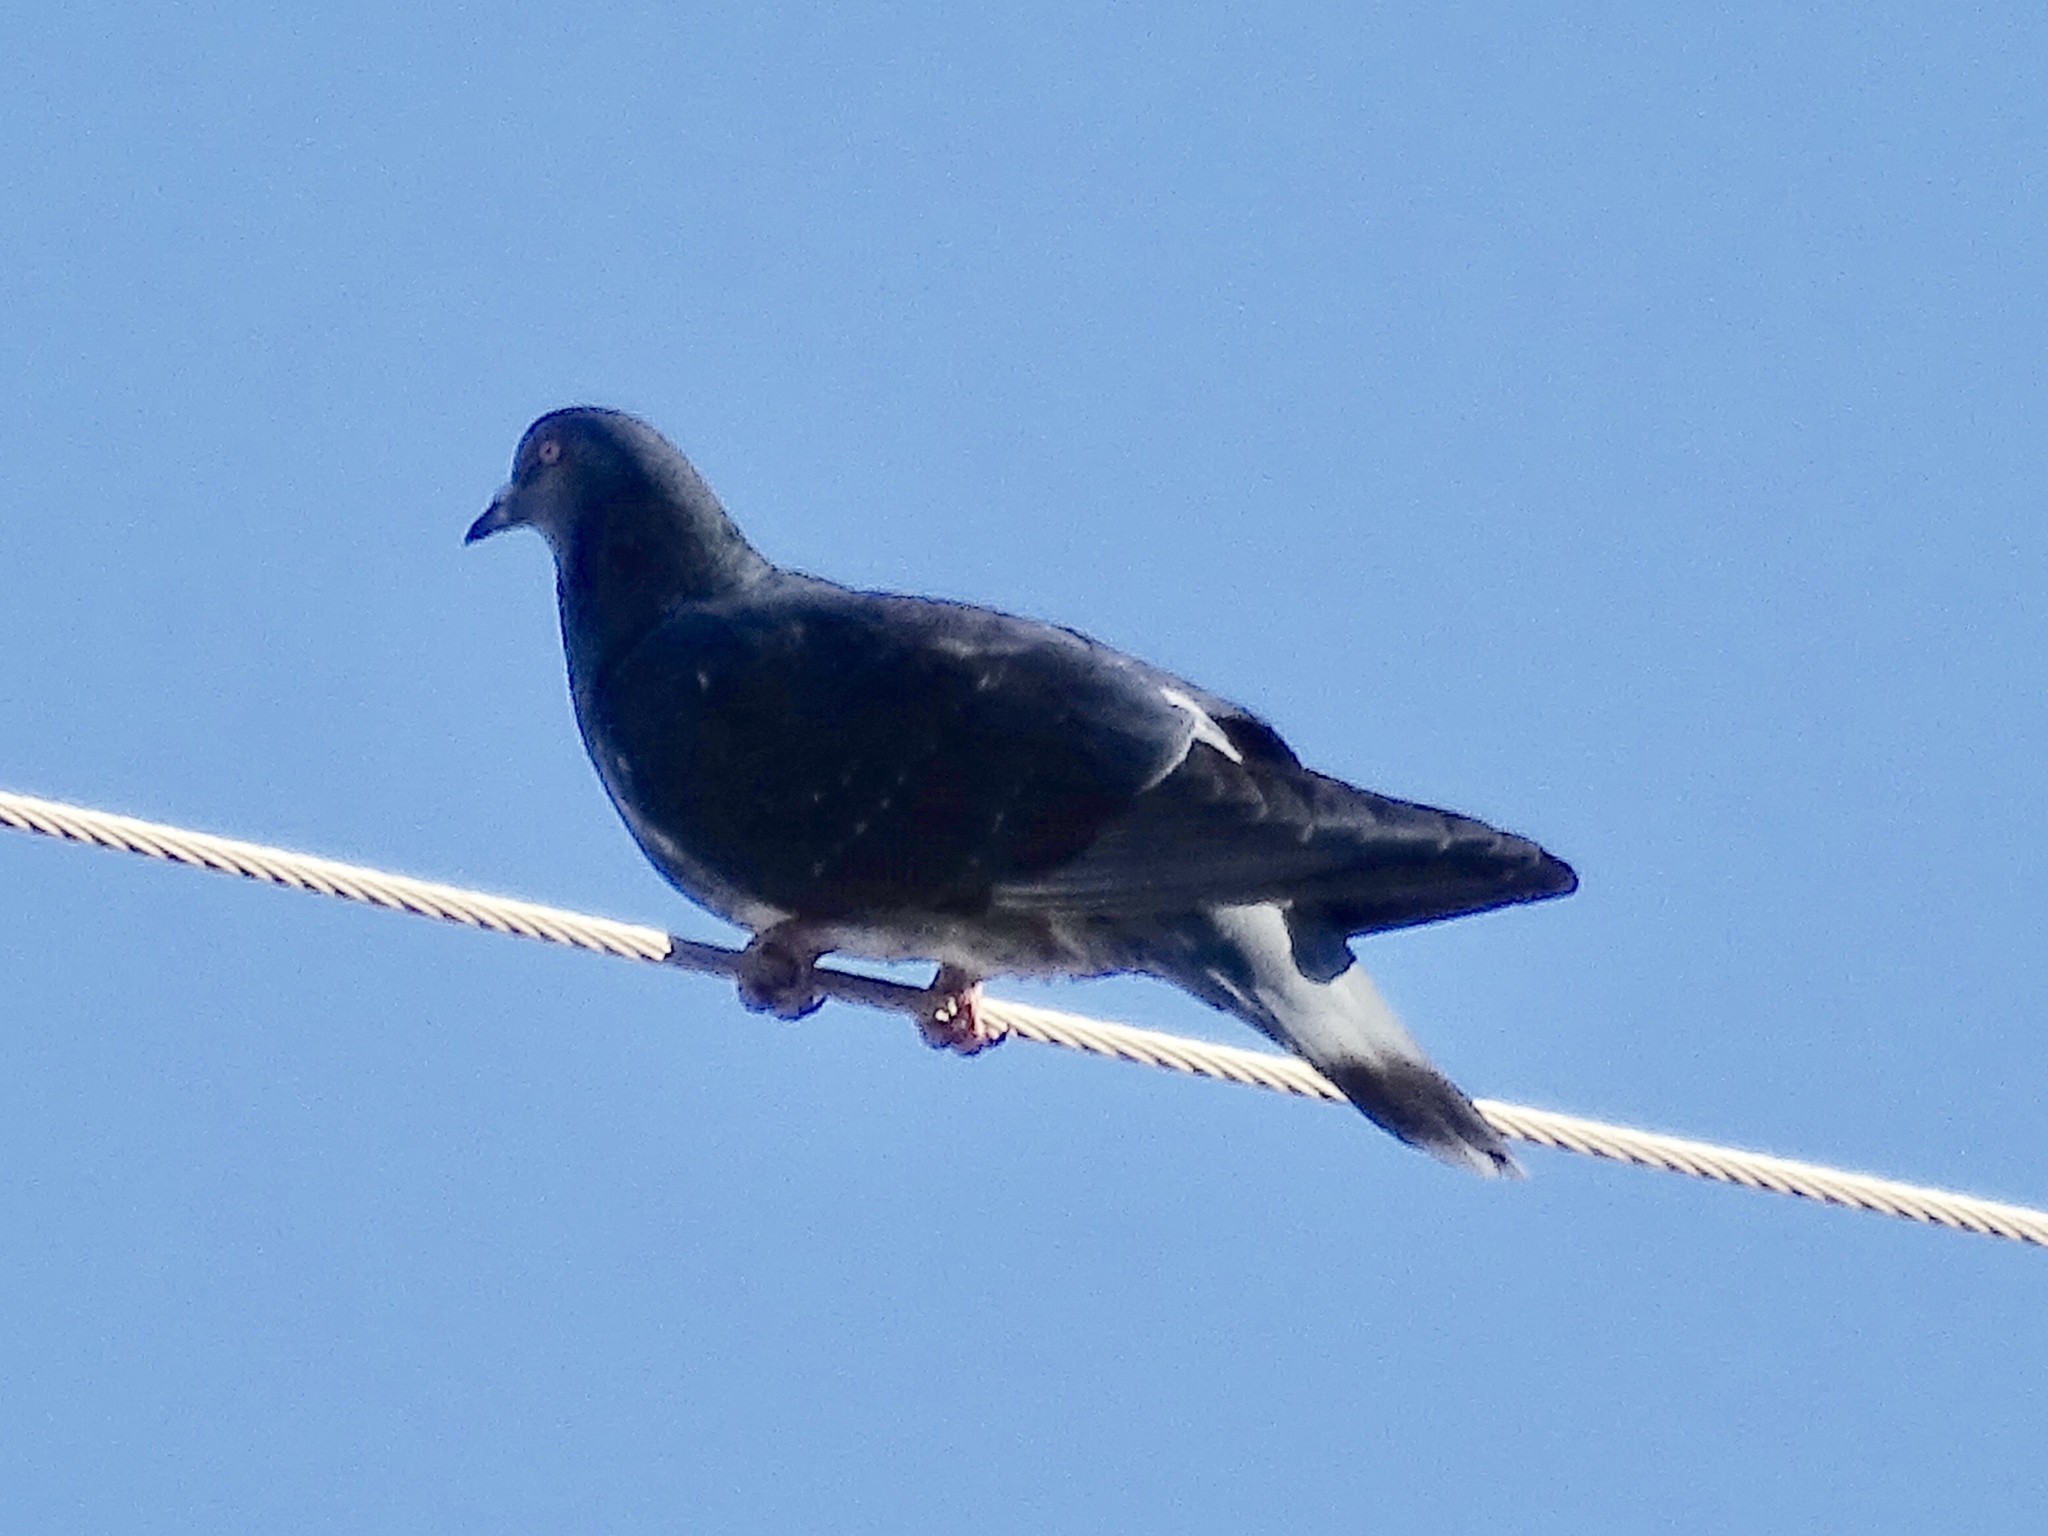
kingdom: Animalia
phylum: Chordata
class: Aves
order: Columbiformes
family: Columbidae
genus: Columba
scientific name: Columba livia
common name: Rock pigeon
